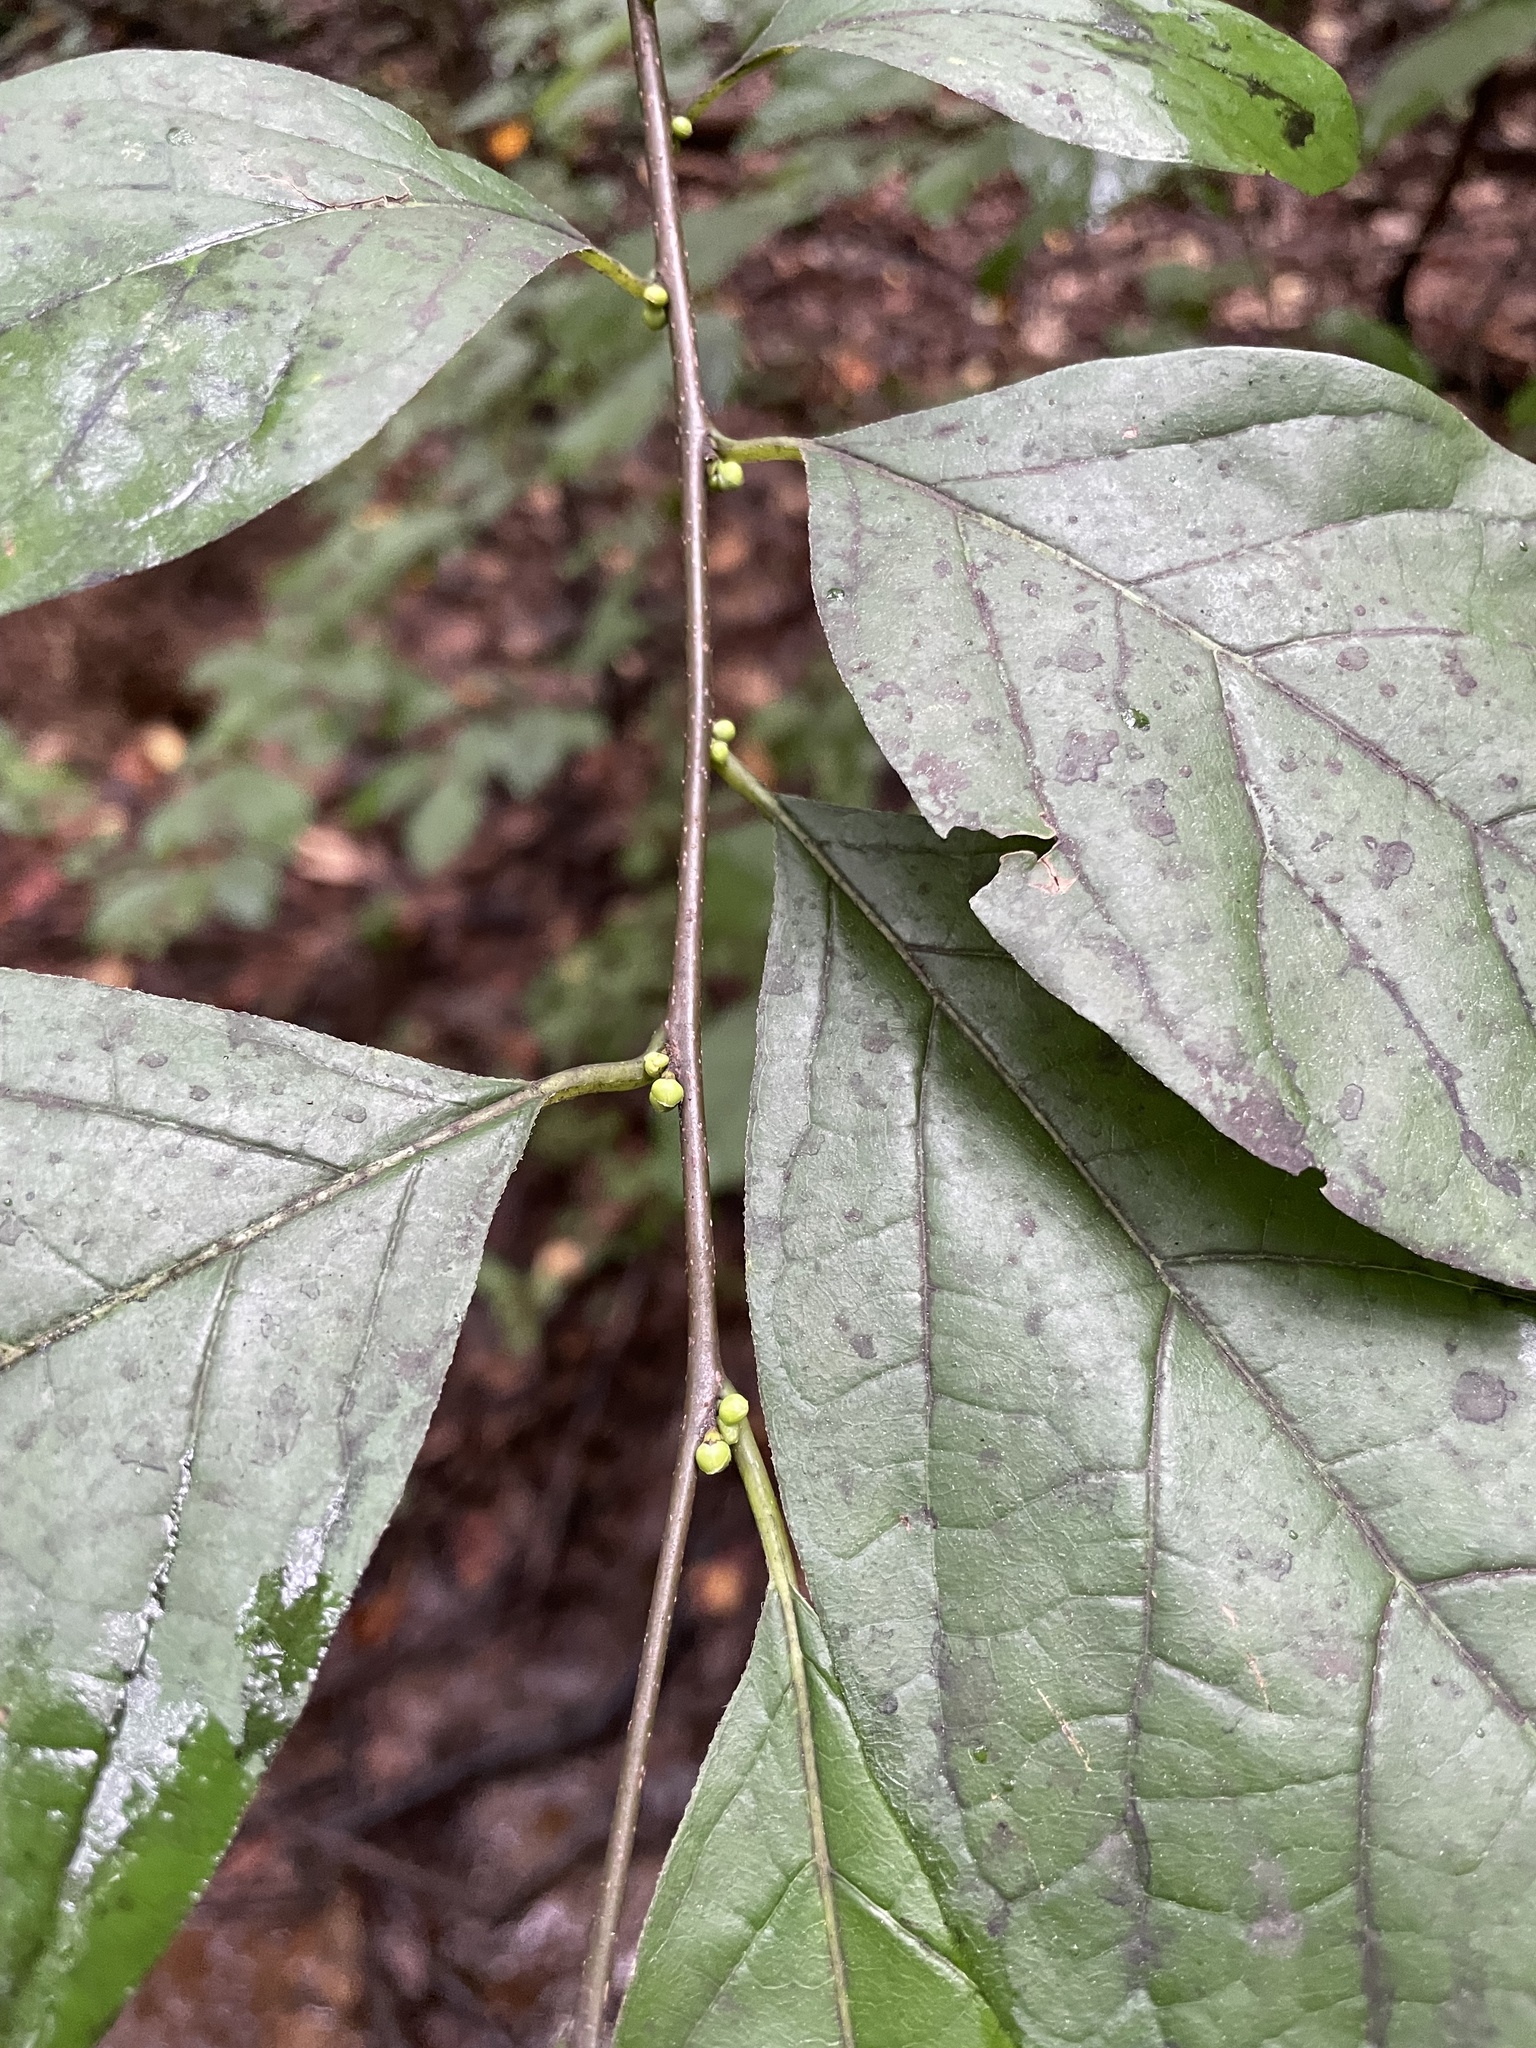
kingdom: Plantae
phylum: Tracheophyta
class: Magnoliopsida
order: Laurales
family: Lauraceae
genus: Lindera
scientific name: Lindera benzoin
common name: Spicebush
